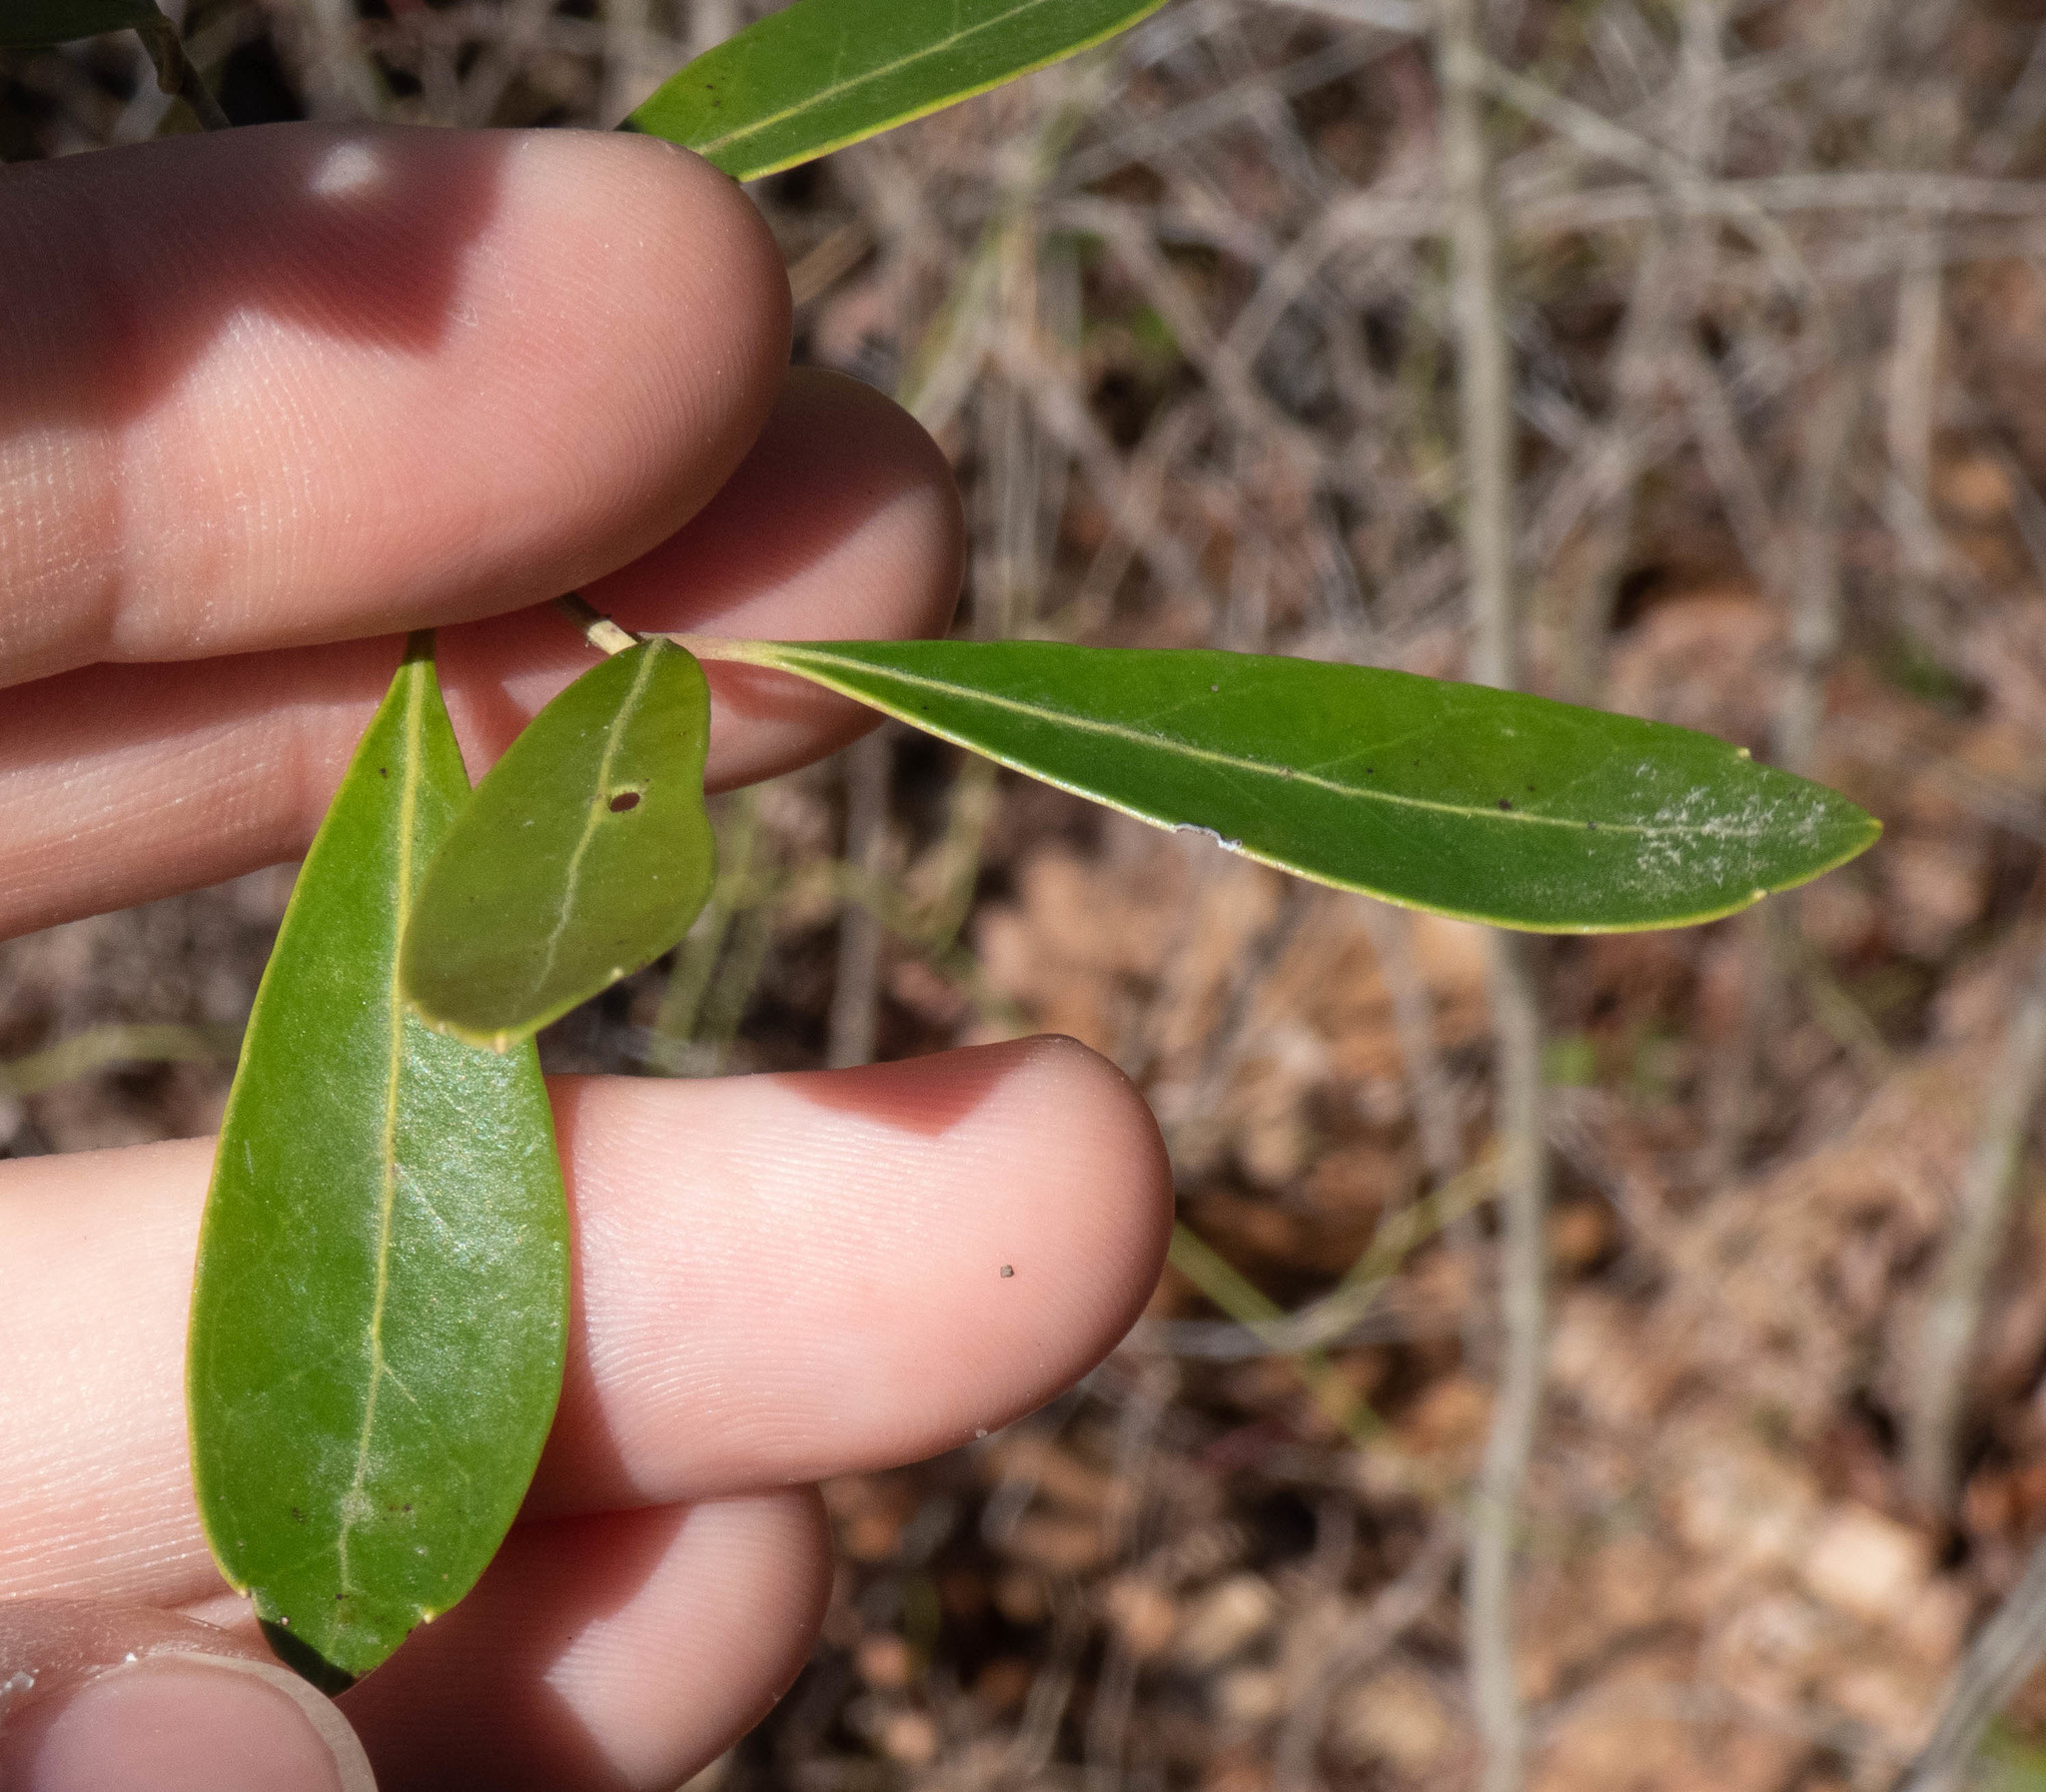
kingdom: Plantae
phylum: Tracheophyta
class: Magnoliopsida
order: Aquifoliales
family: Aquifoliaceae
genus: Ilex
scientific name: Ilex glabra
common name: Bitter gallberry
